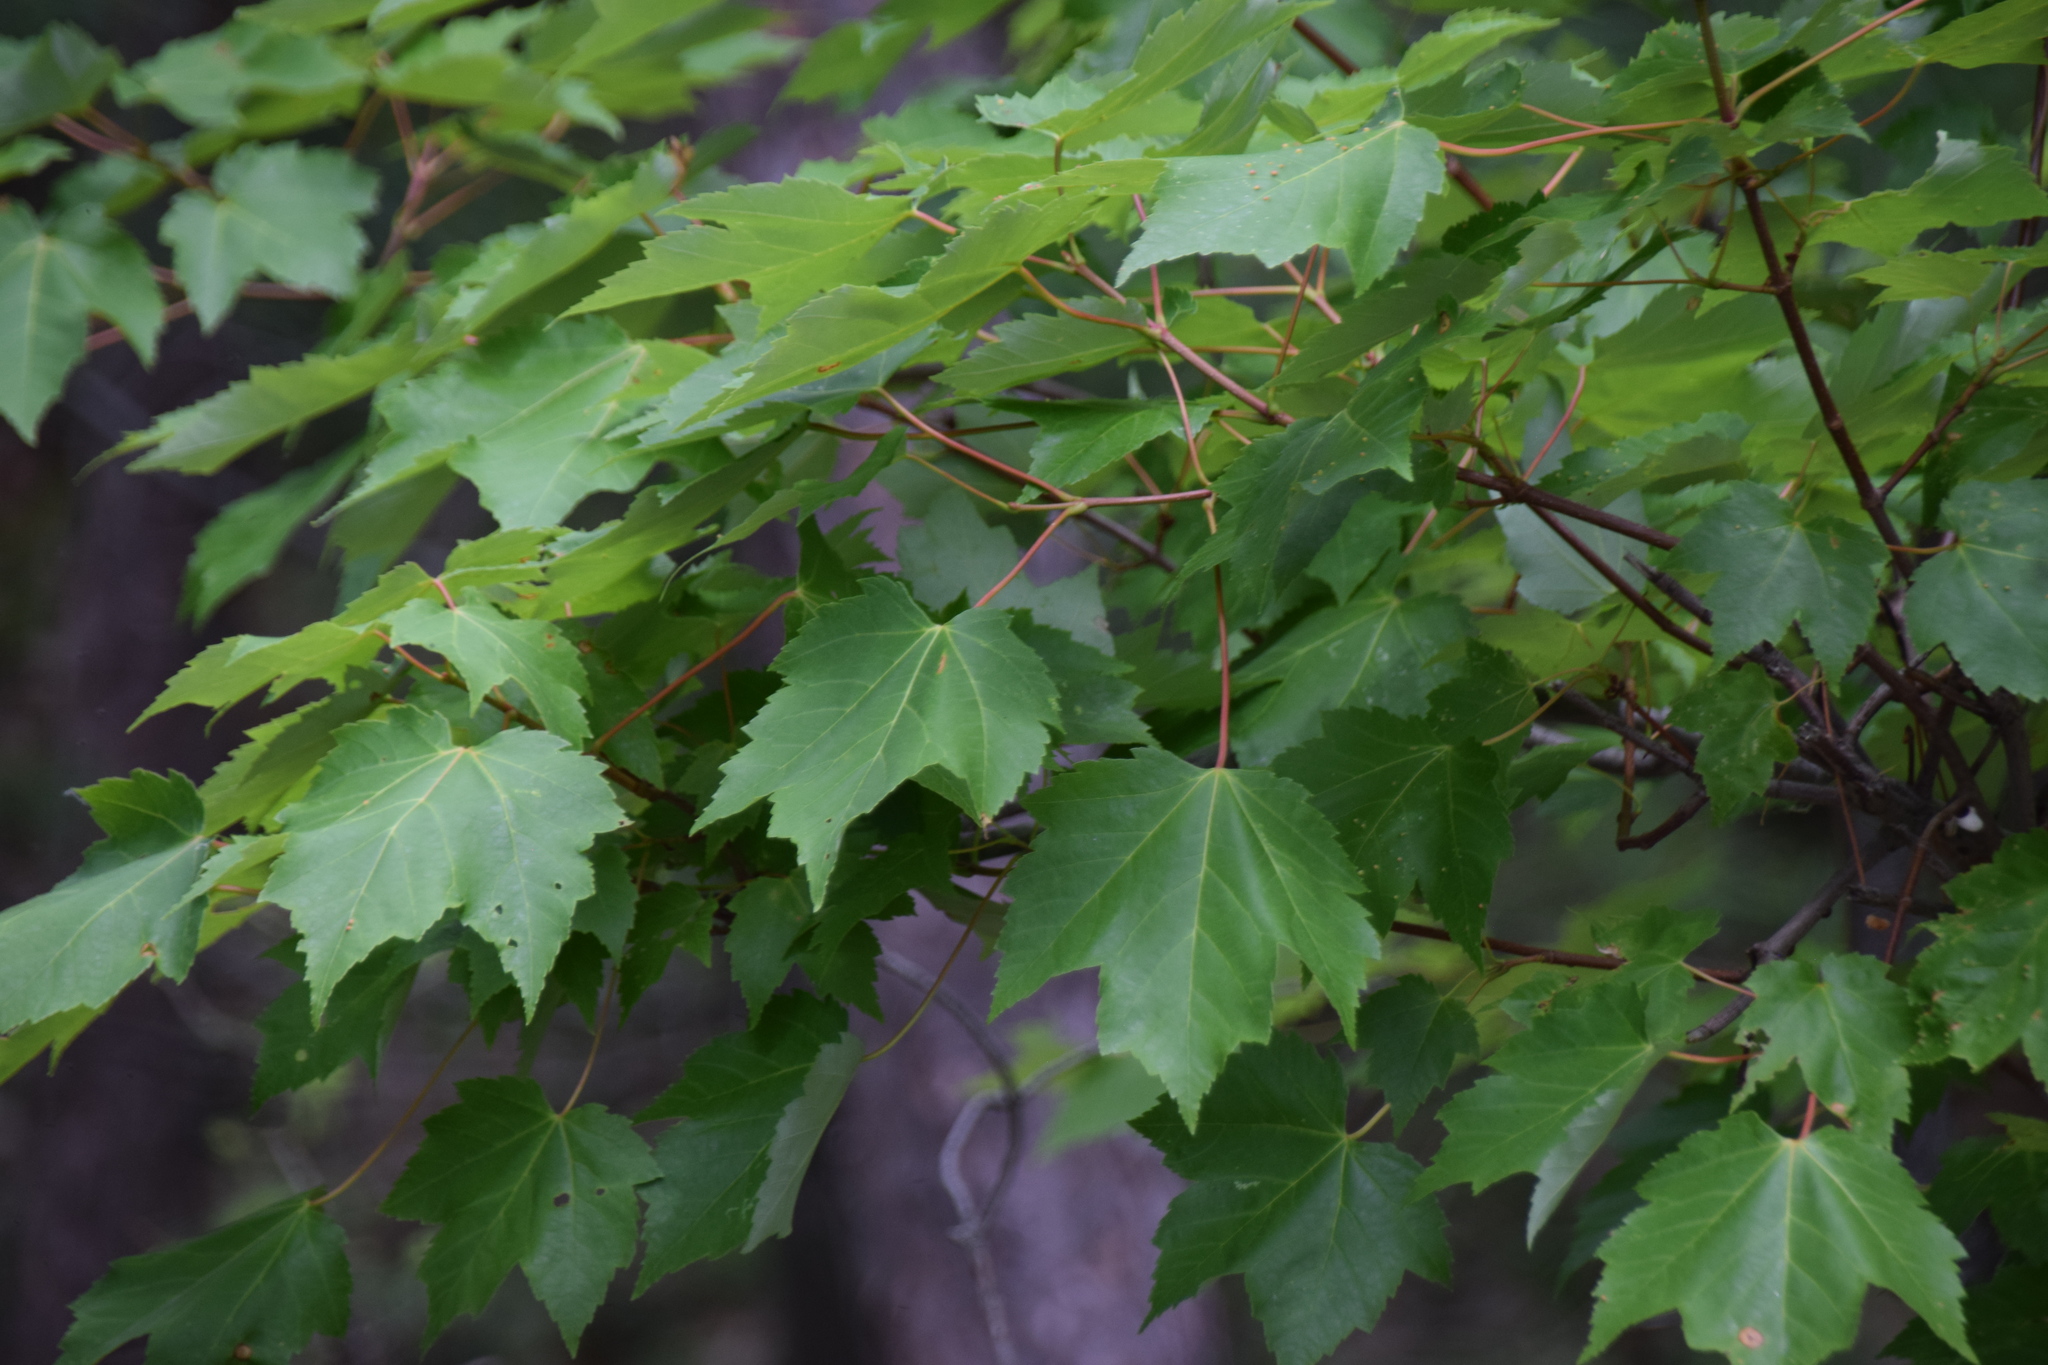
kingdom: Plantae
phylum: Tracheophyta
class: Magnoliopsida
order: Sapindales
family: Sapindaceae
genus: Acer
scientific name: Acer rubrum
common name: Red maple
